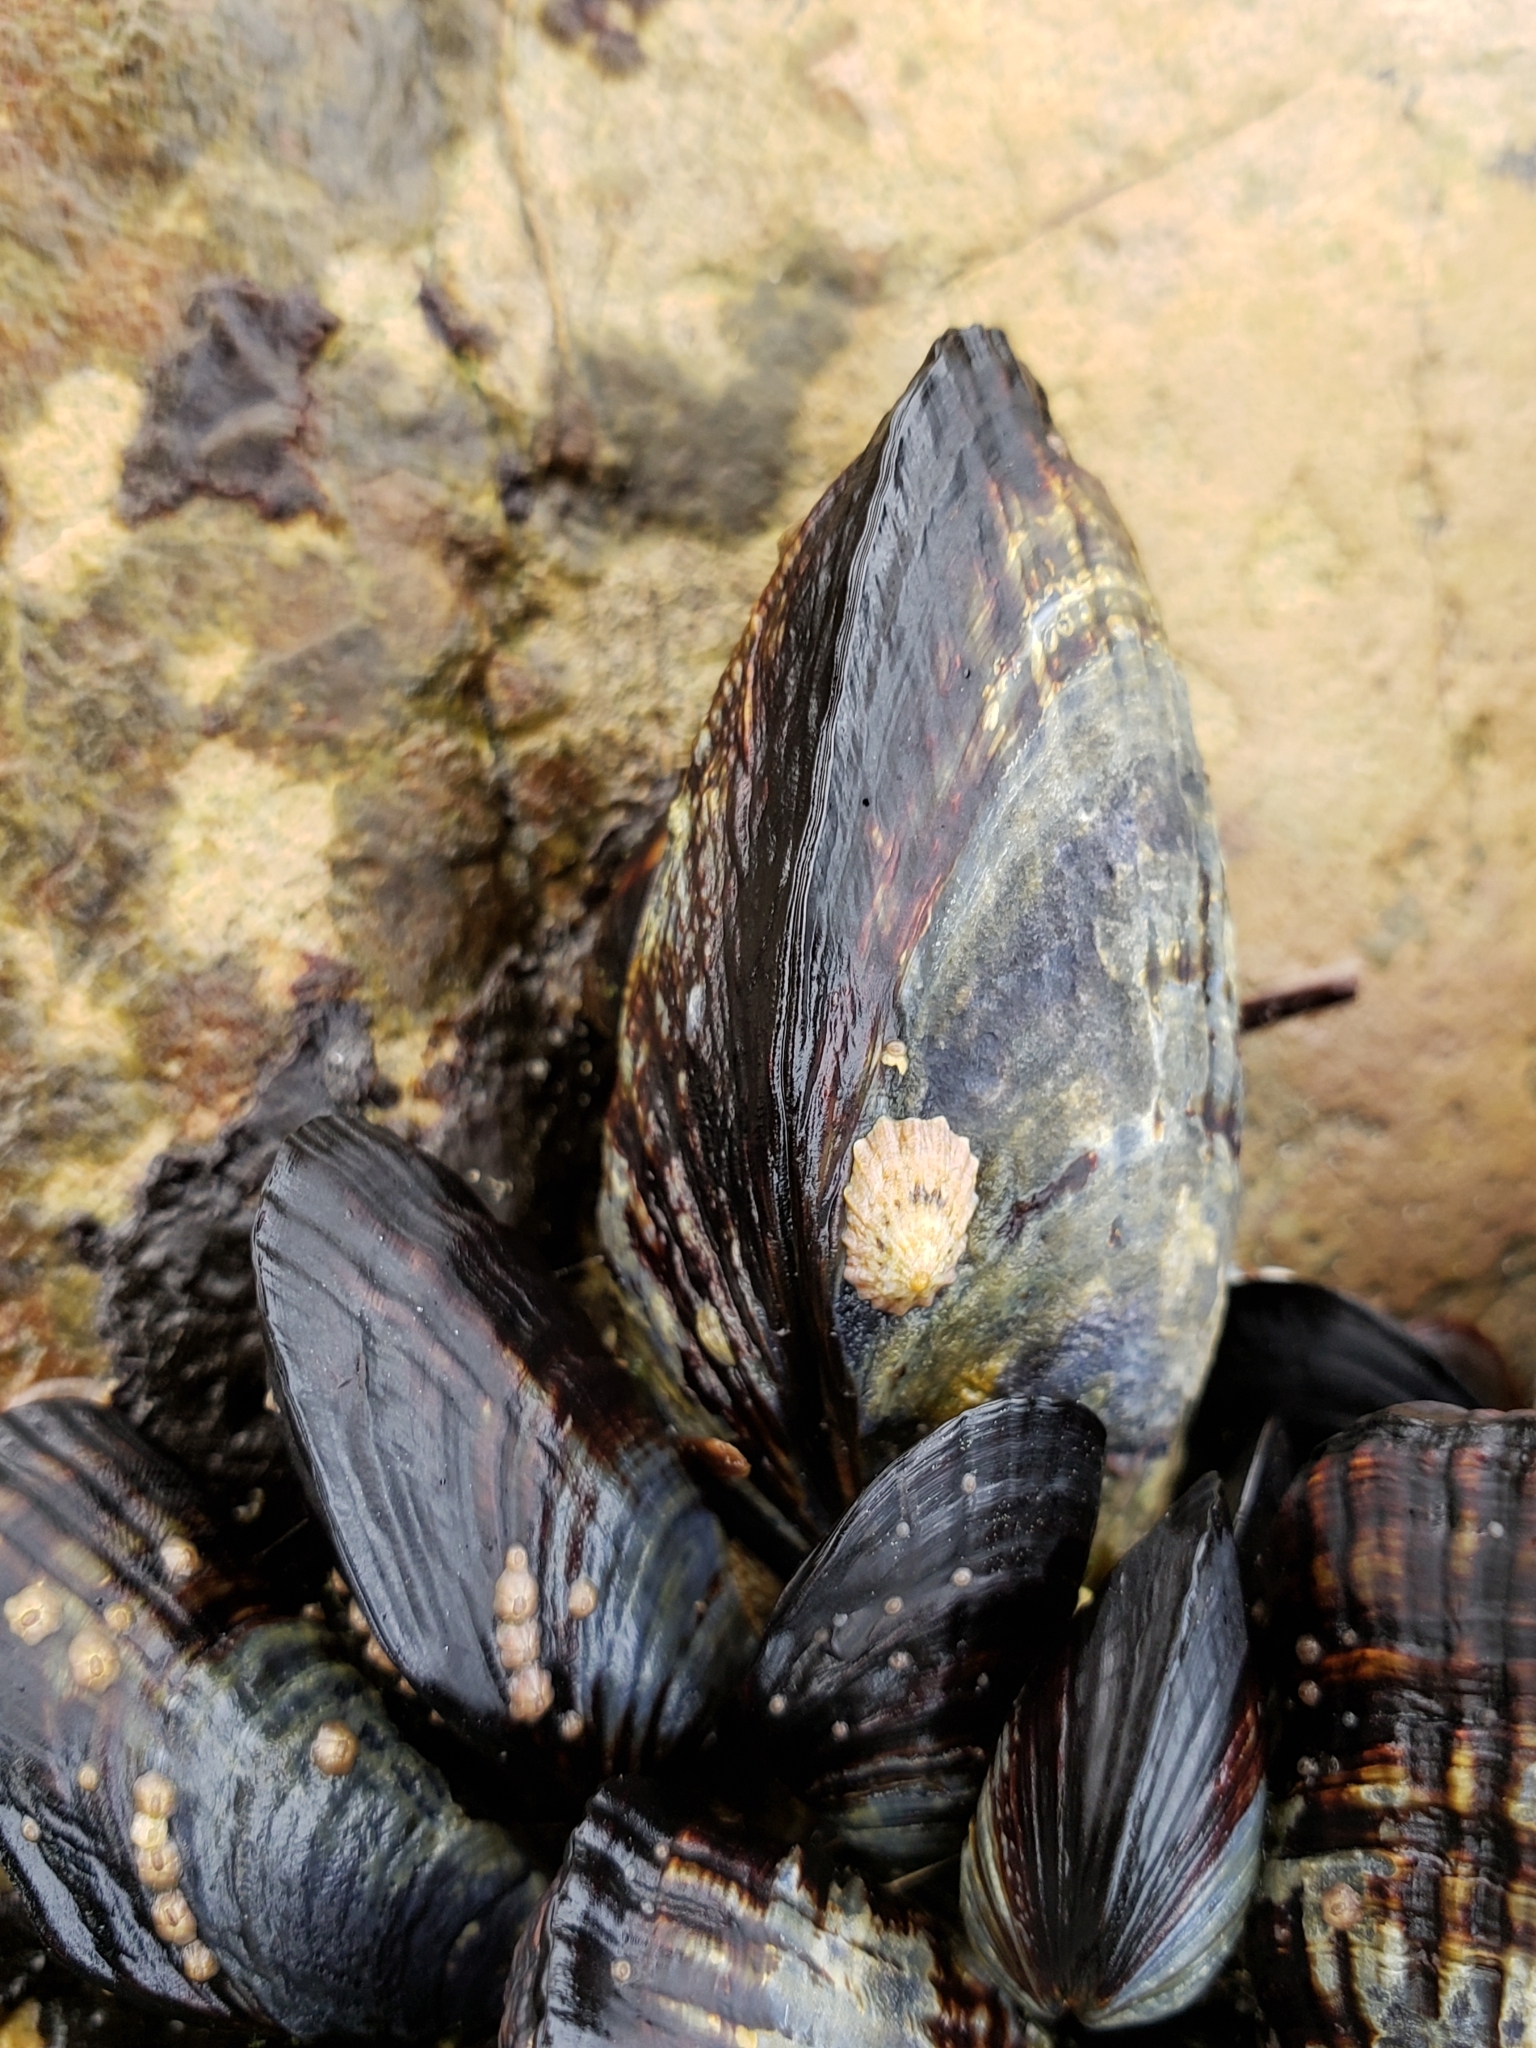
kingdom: Animalia
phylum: Mollusca
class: Bivalvia
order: Mytilida
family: Mytilidae
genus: Mytilus
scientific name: Mytilus californianus
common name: California mussel
